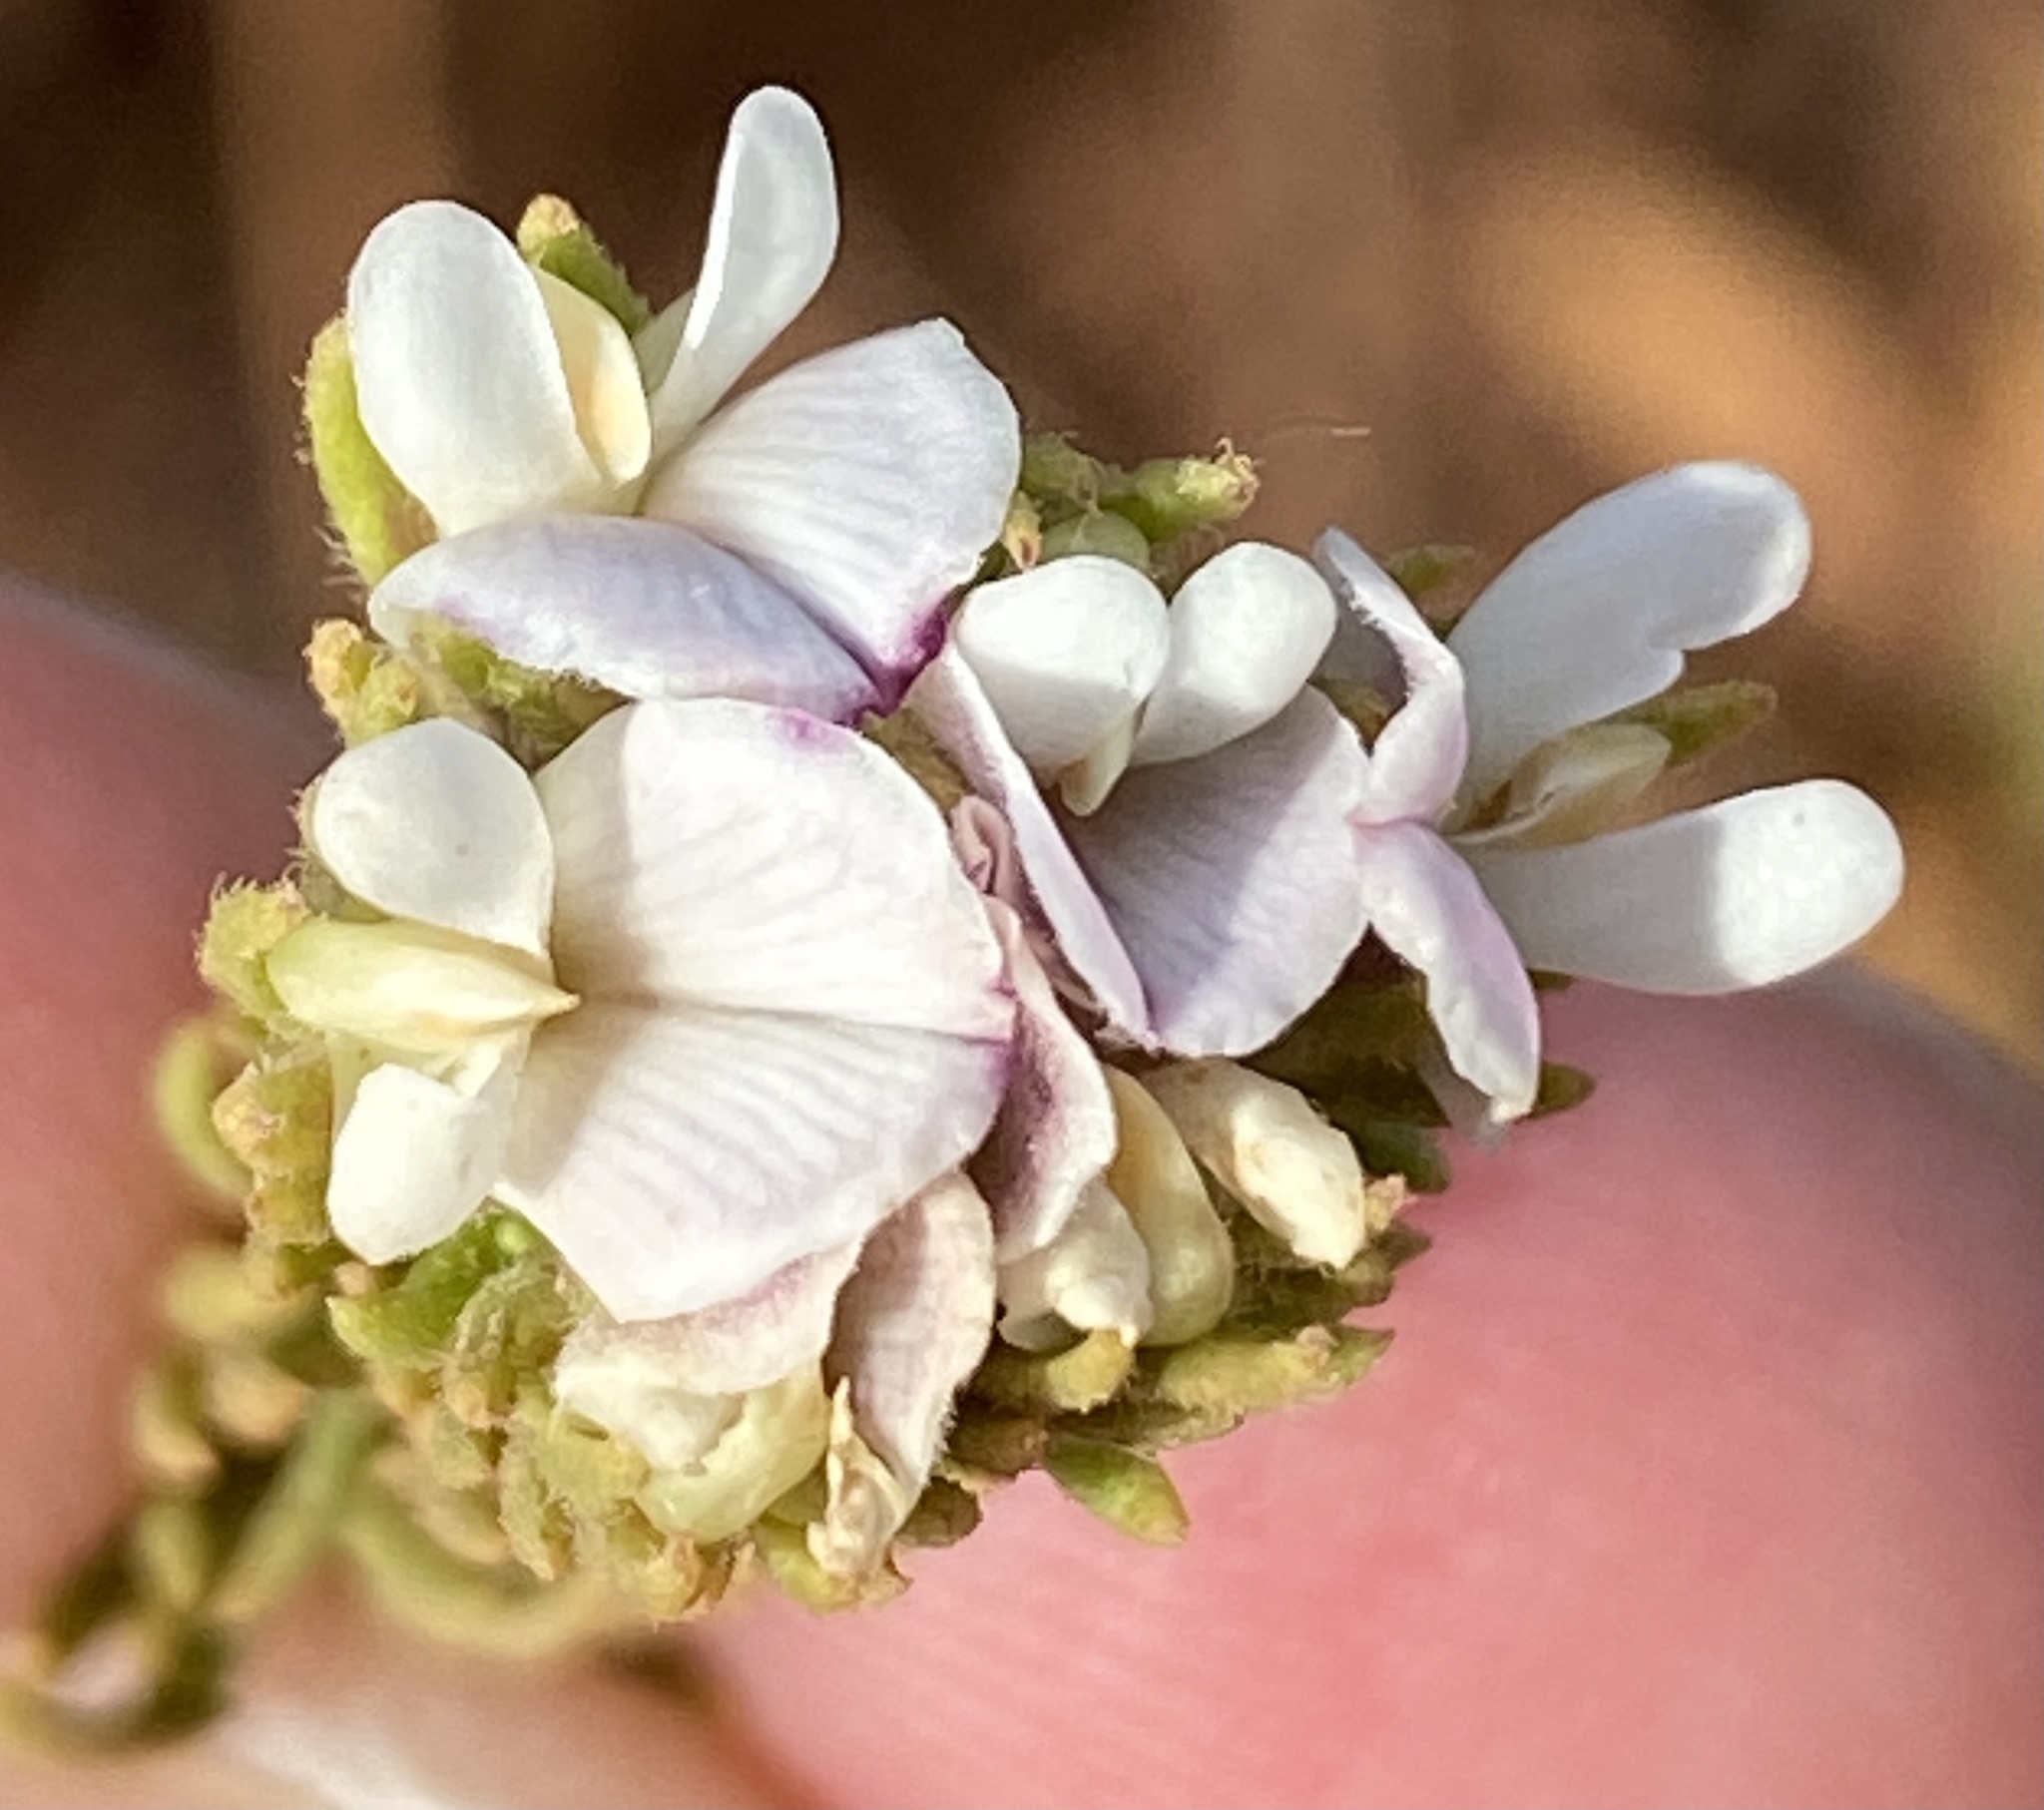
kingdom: Plantae
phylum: Tracheophyta
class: Magnoliopsida
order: Fabales
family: Fabaceae
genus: Aspalathus
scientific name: Aspalathus forbesii
